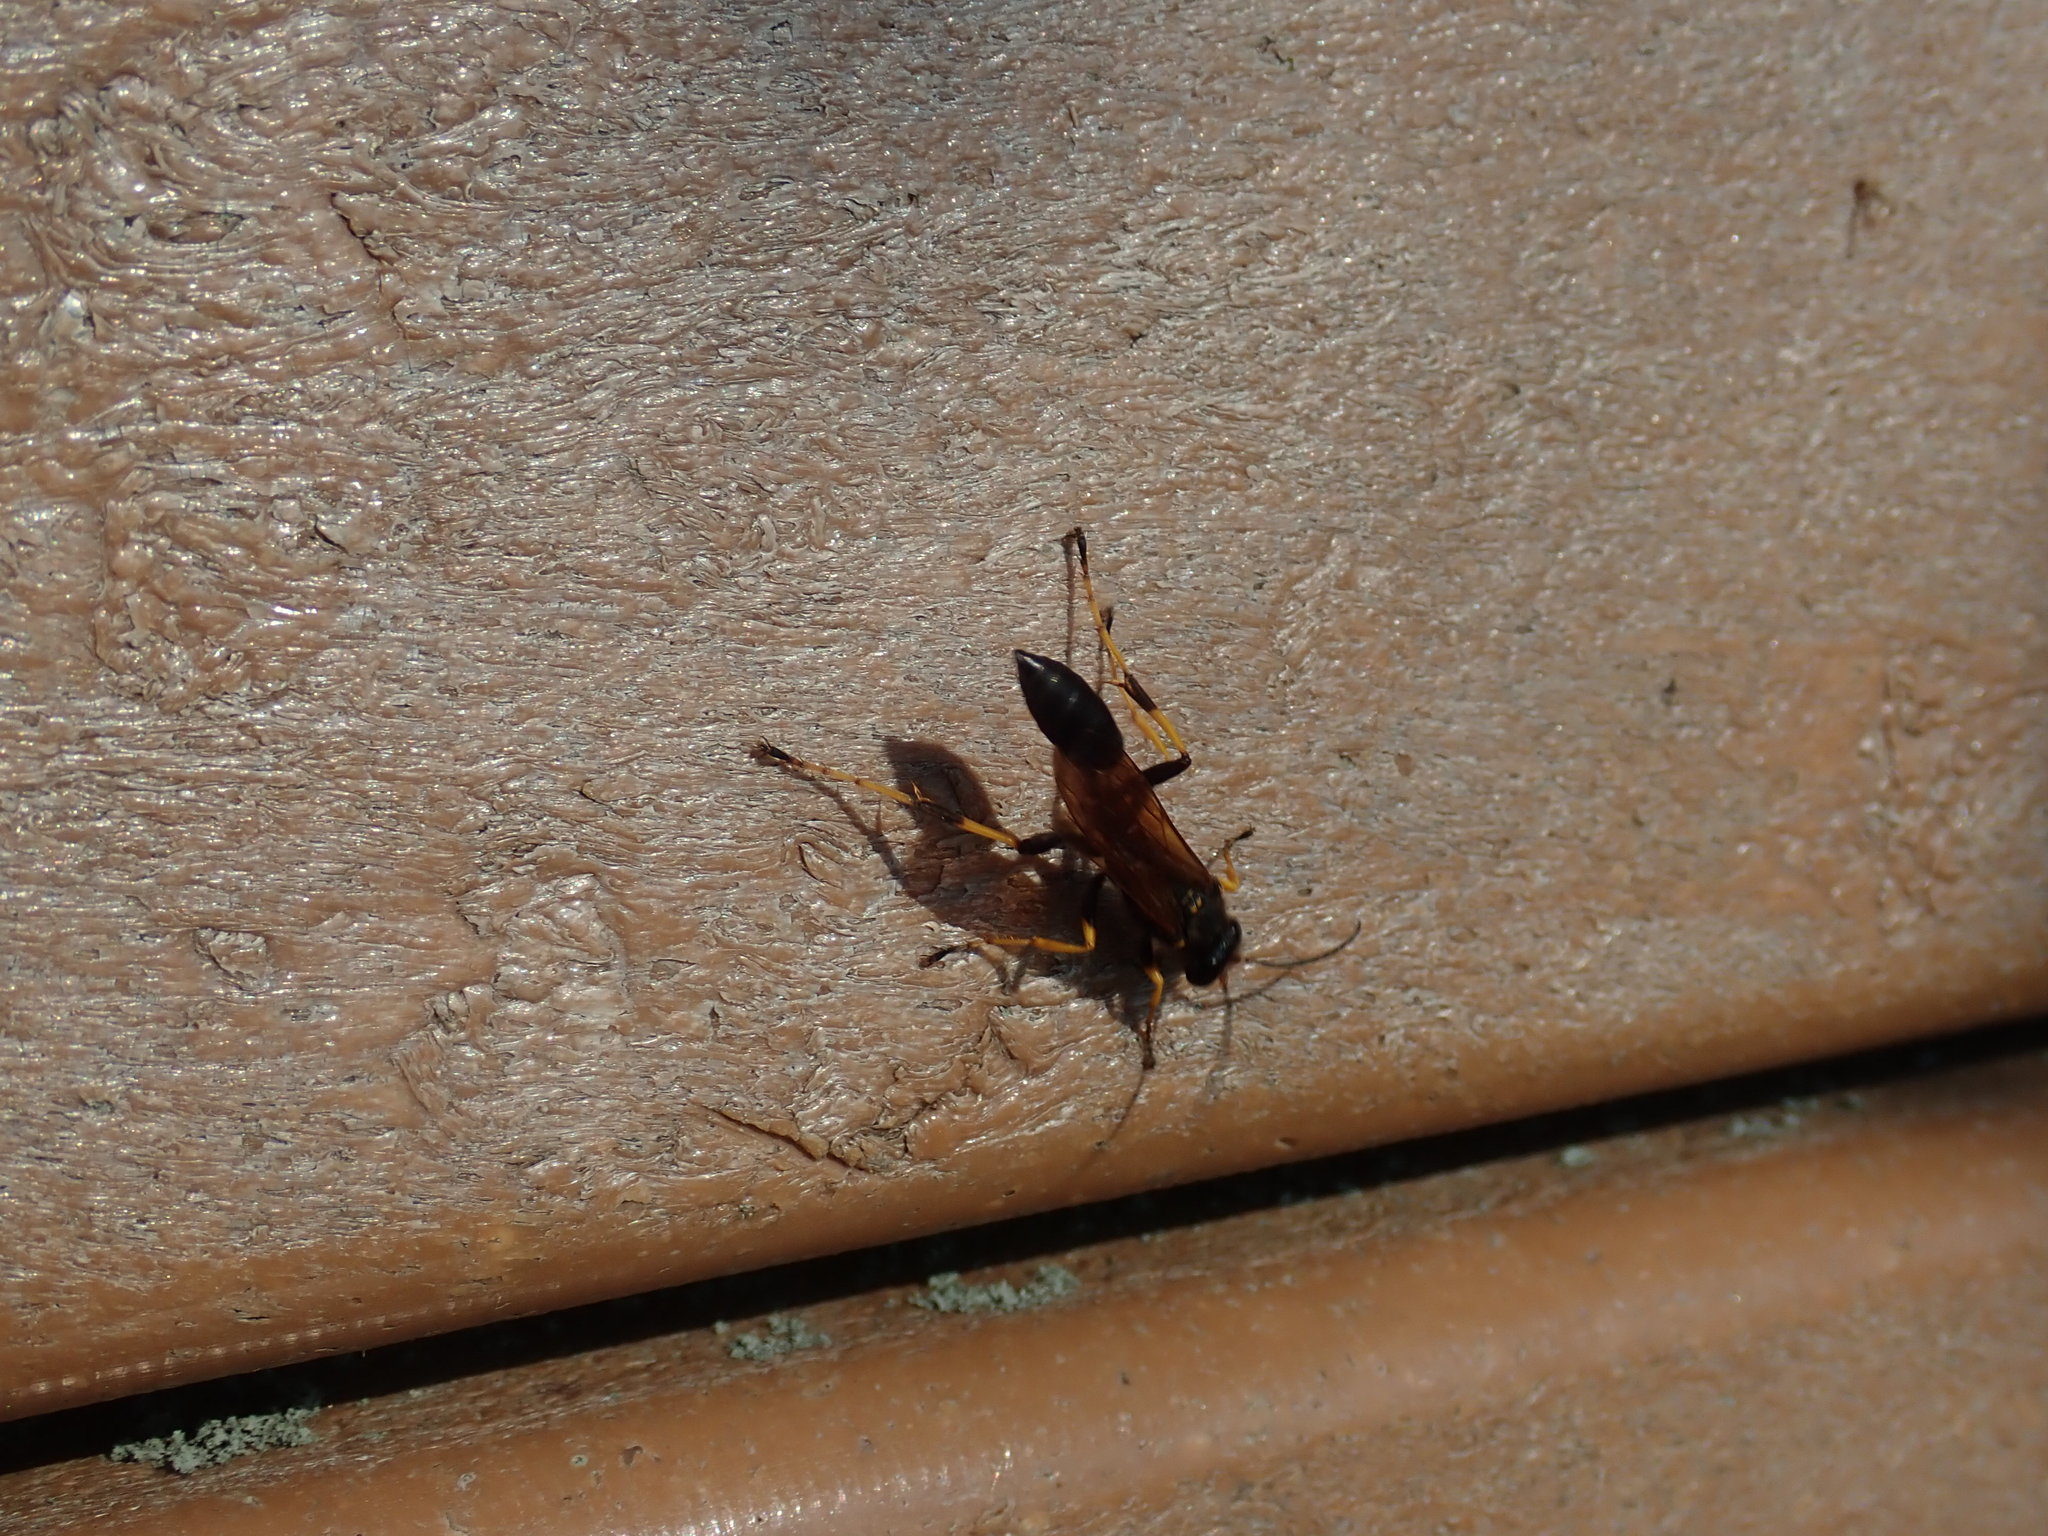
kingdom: Animalia
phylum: Arthropoda
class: Insecta
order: Hymenoptera
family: Sphecidae
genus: Sceliphron
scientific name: Sceliphron caementarium
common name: Mud dauber
